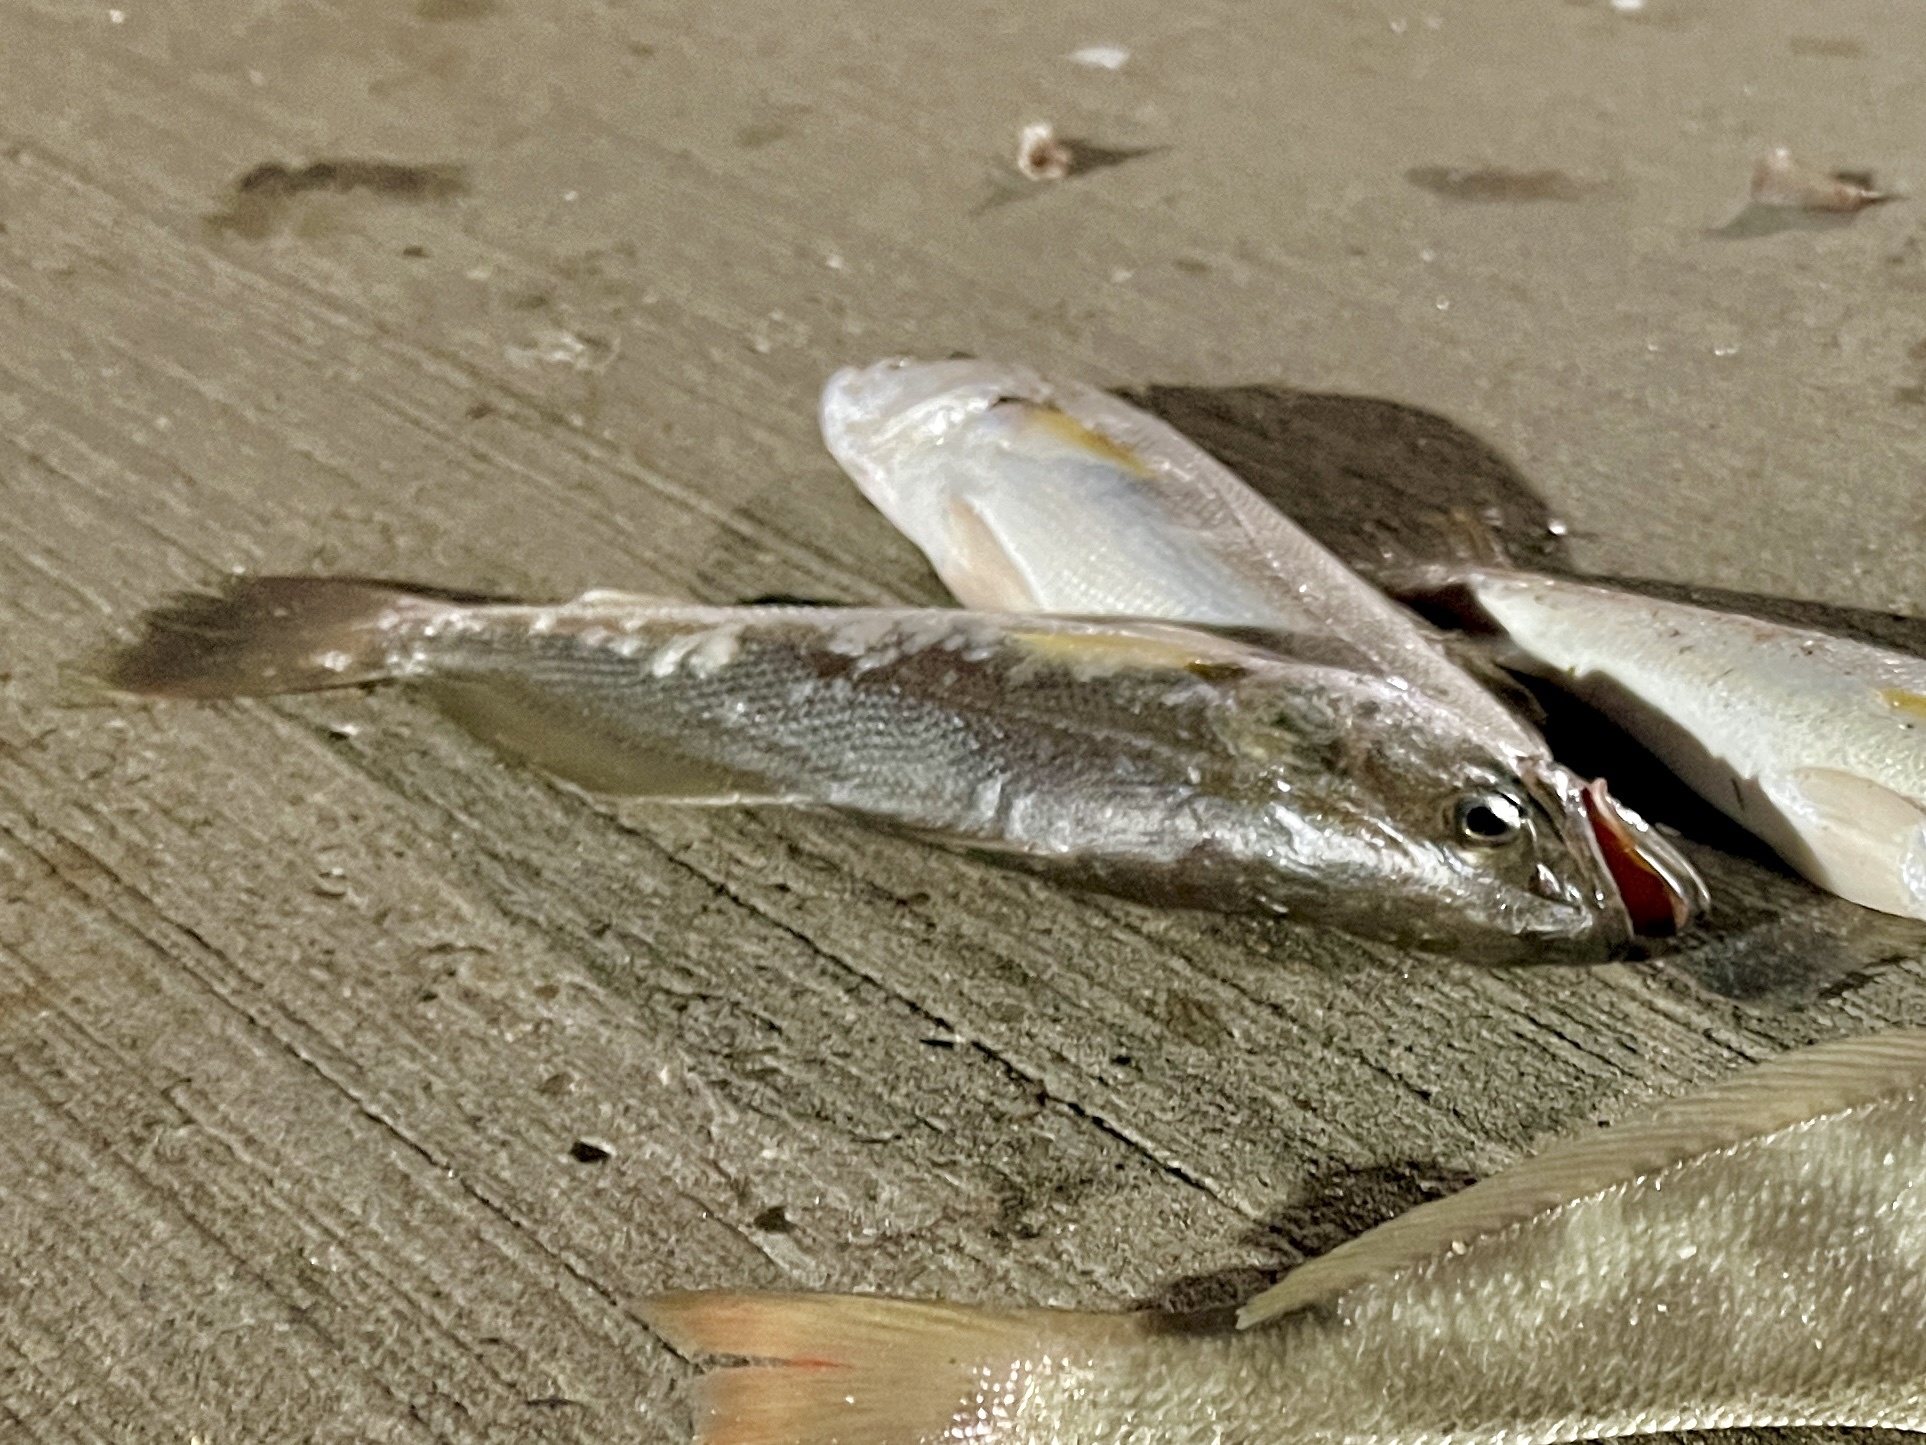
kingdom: Animalia
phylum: Chordata
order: Perciformes
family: Sciaenidae
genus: Cynoscion
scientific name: Cynoscion arenarius
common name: Sand seatrout
